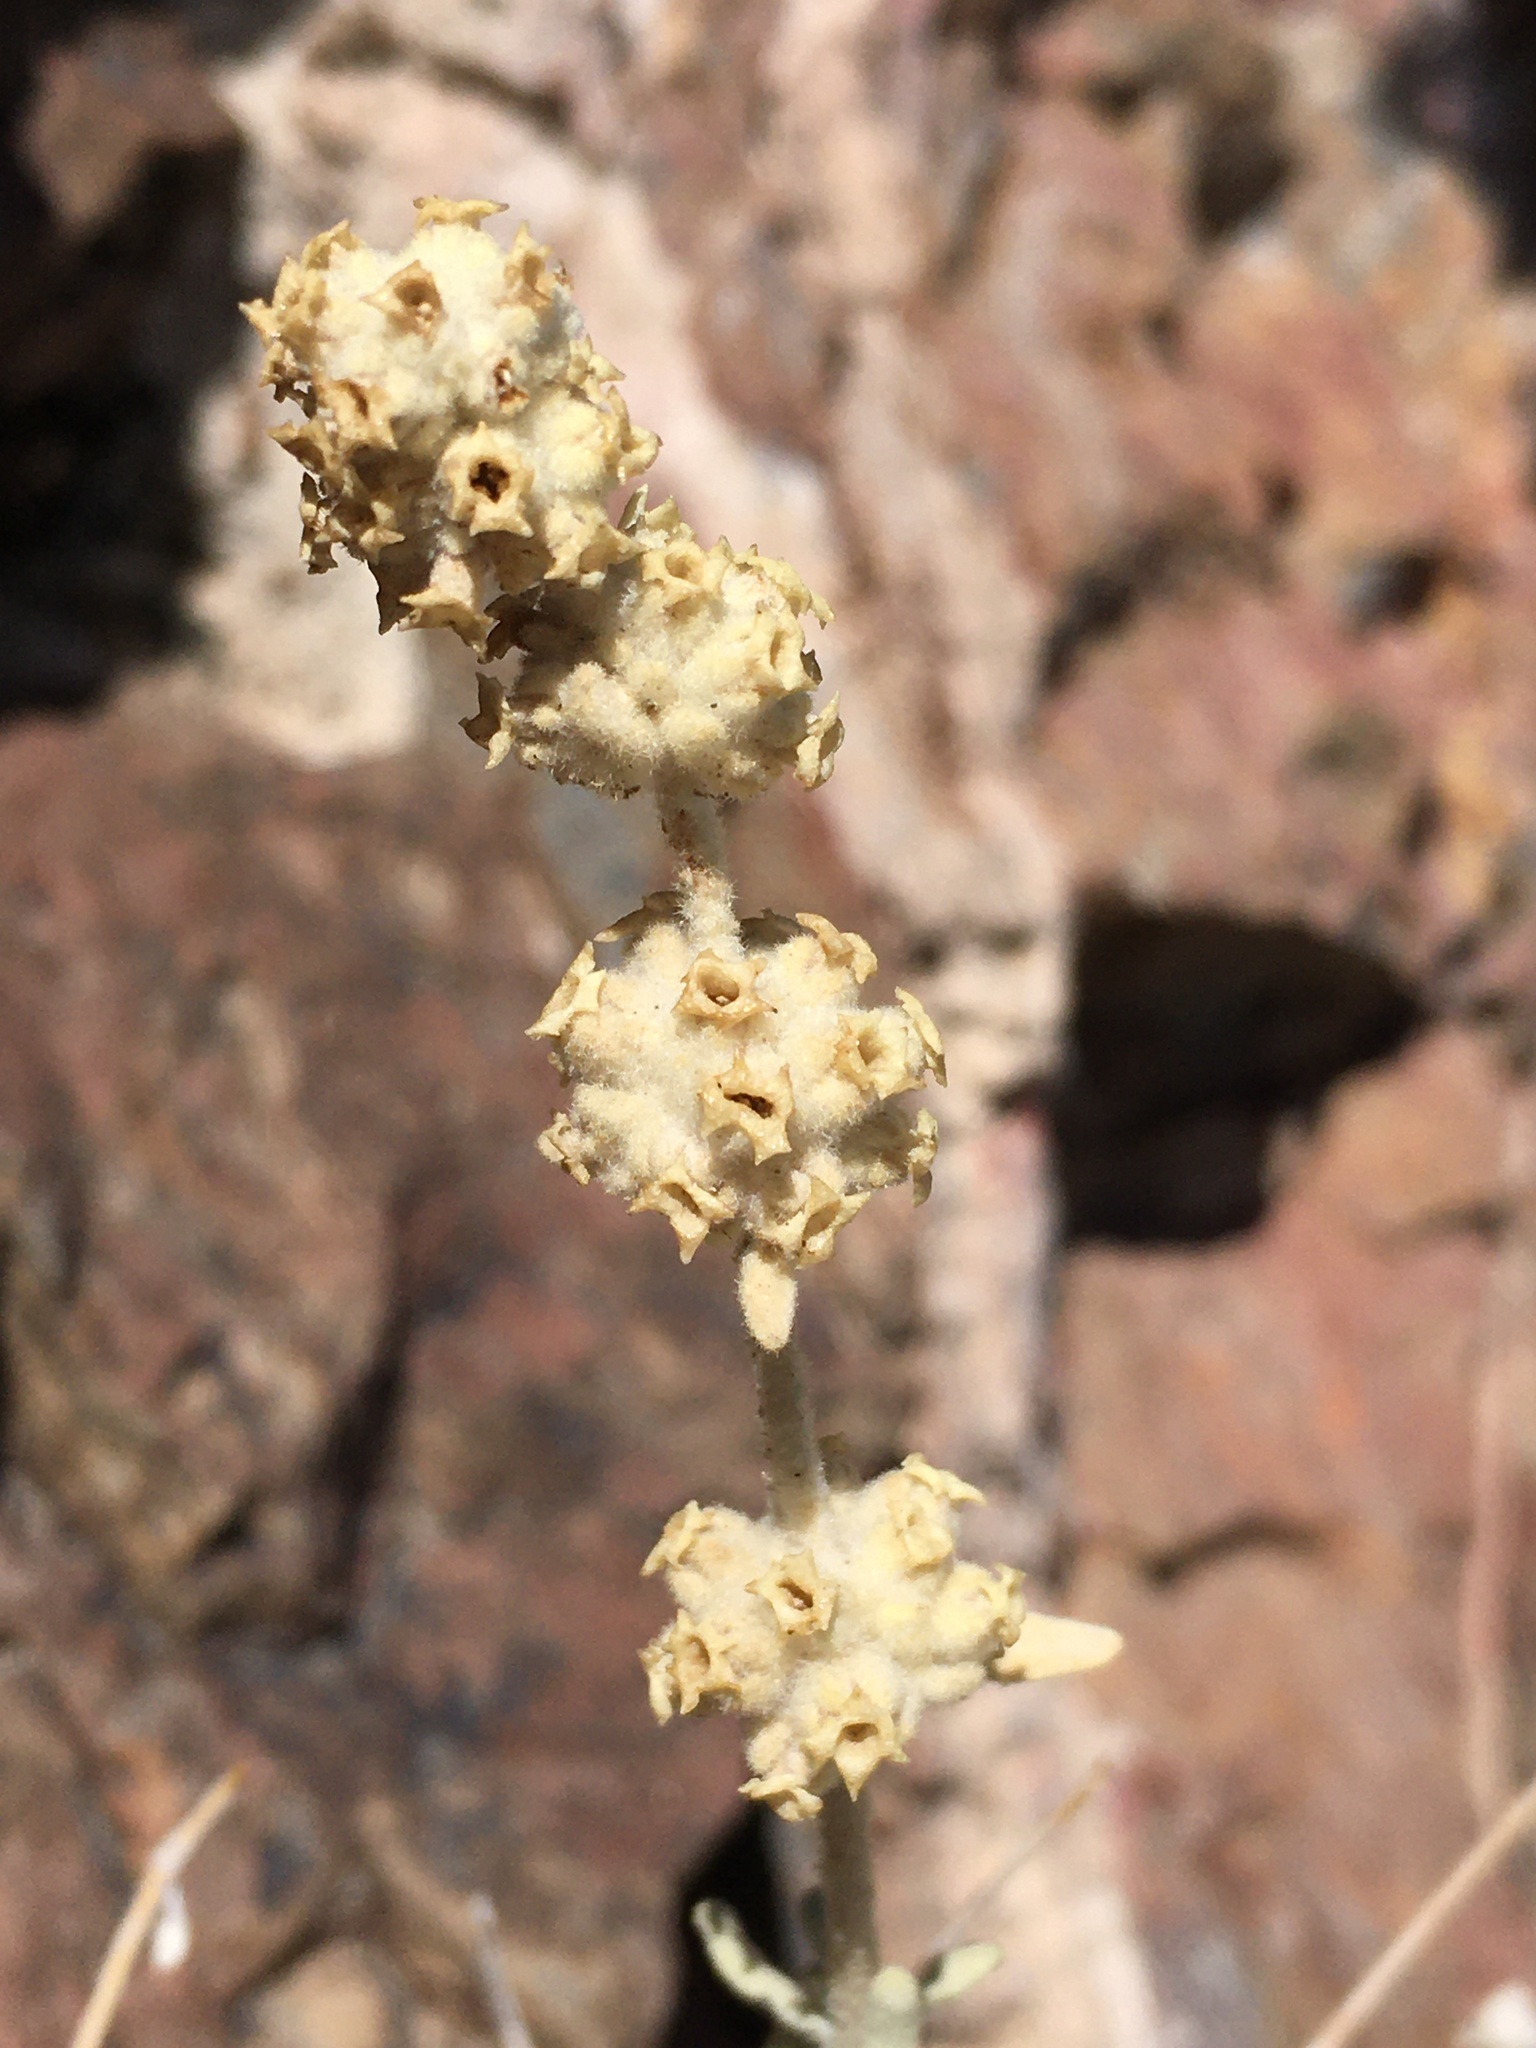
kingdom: Plantae
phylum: Tracheophyta
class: Magnoliopsida
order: Lamiales
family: Scrophulariaceae
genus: Buddleja
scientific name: Buddleja utahensis
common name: Utah butterfly-bush
